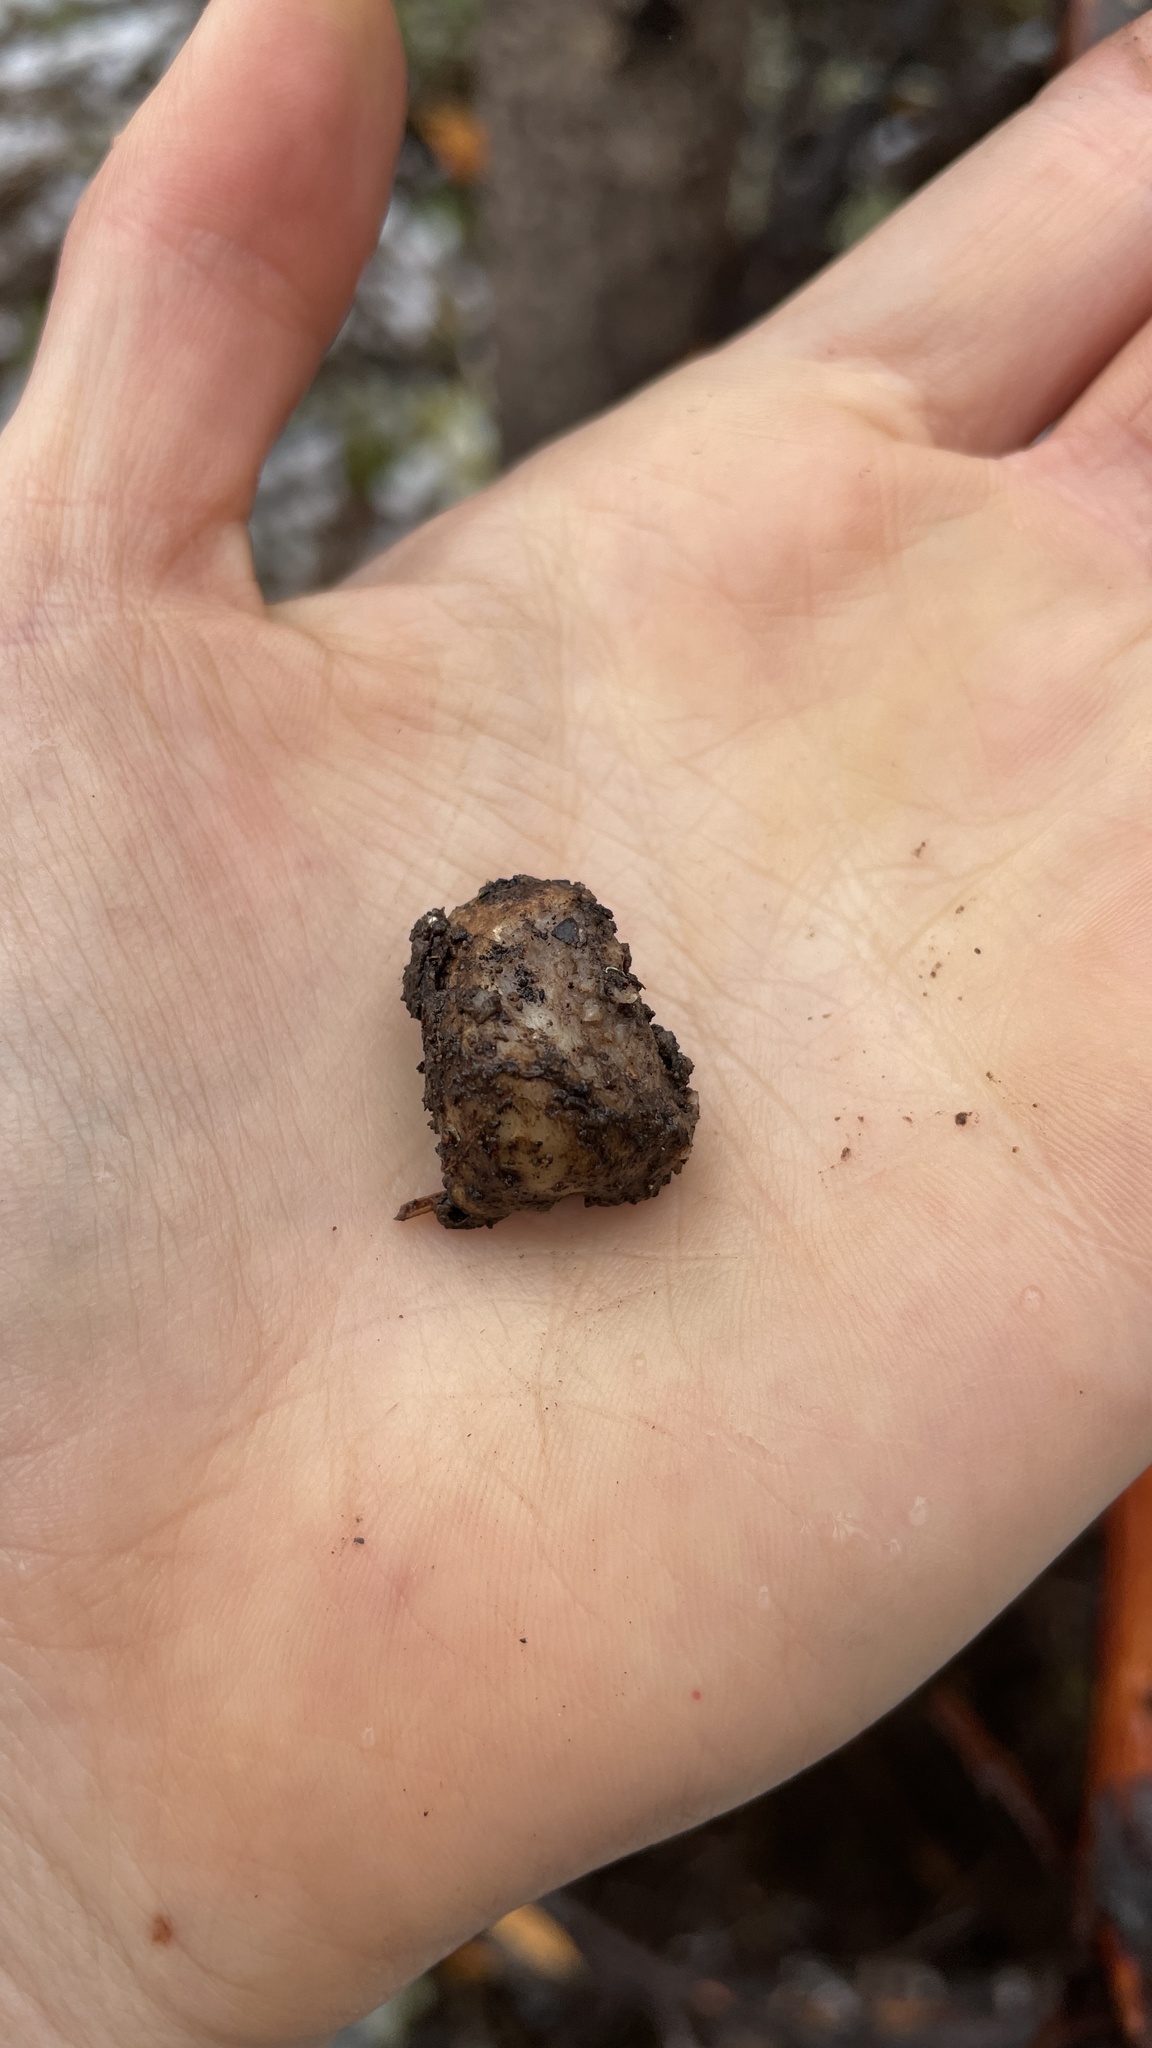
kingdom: Fungi
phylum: Ascomycota
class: Pezizomycetes
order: Pezizales
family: Tuberaceae
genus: Tuber
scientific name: Tuber gibbosum
